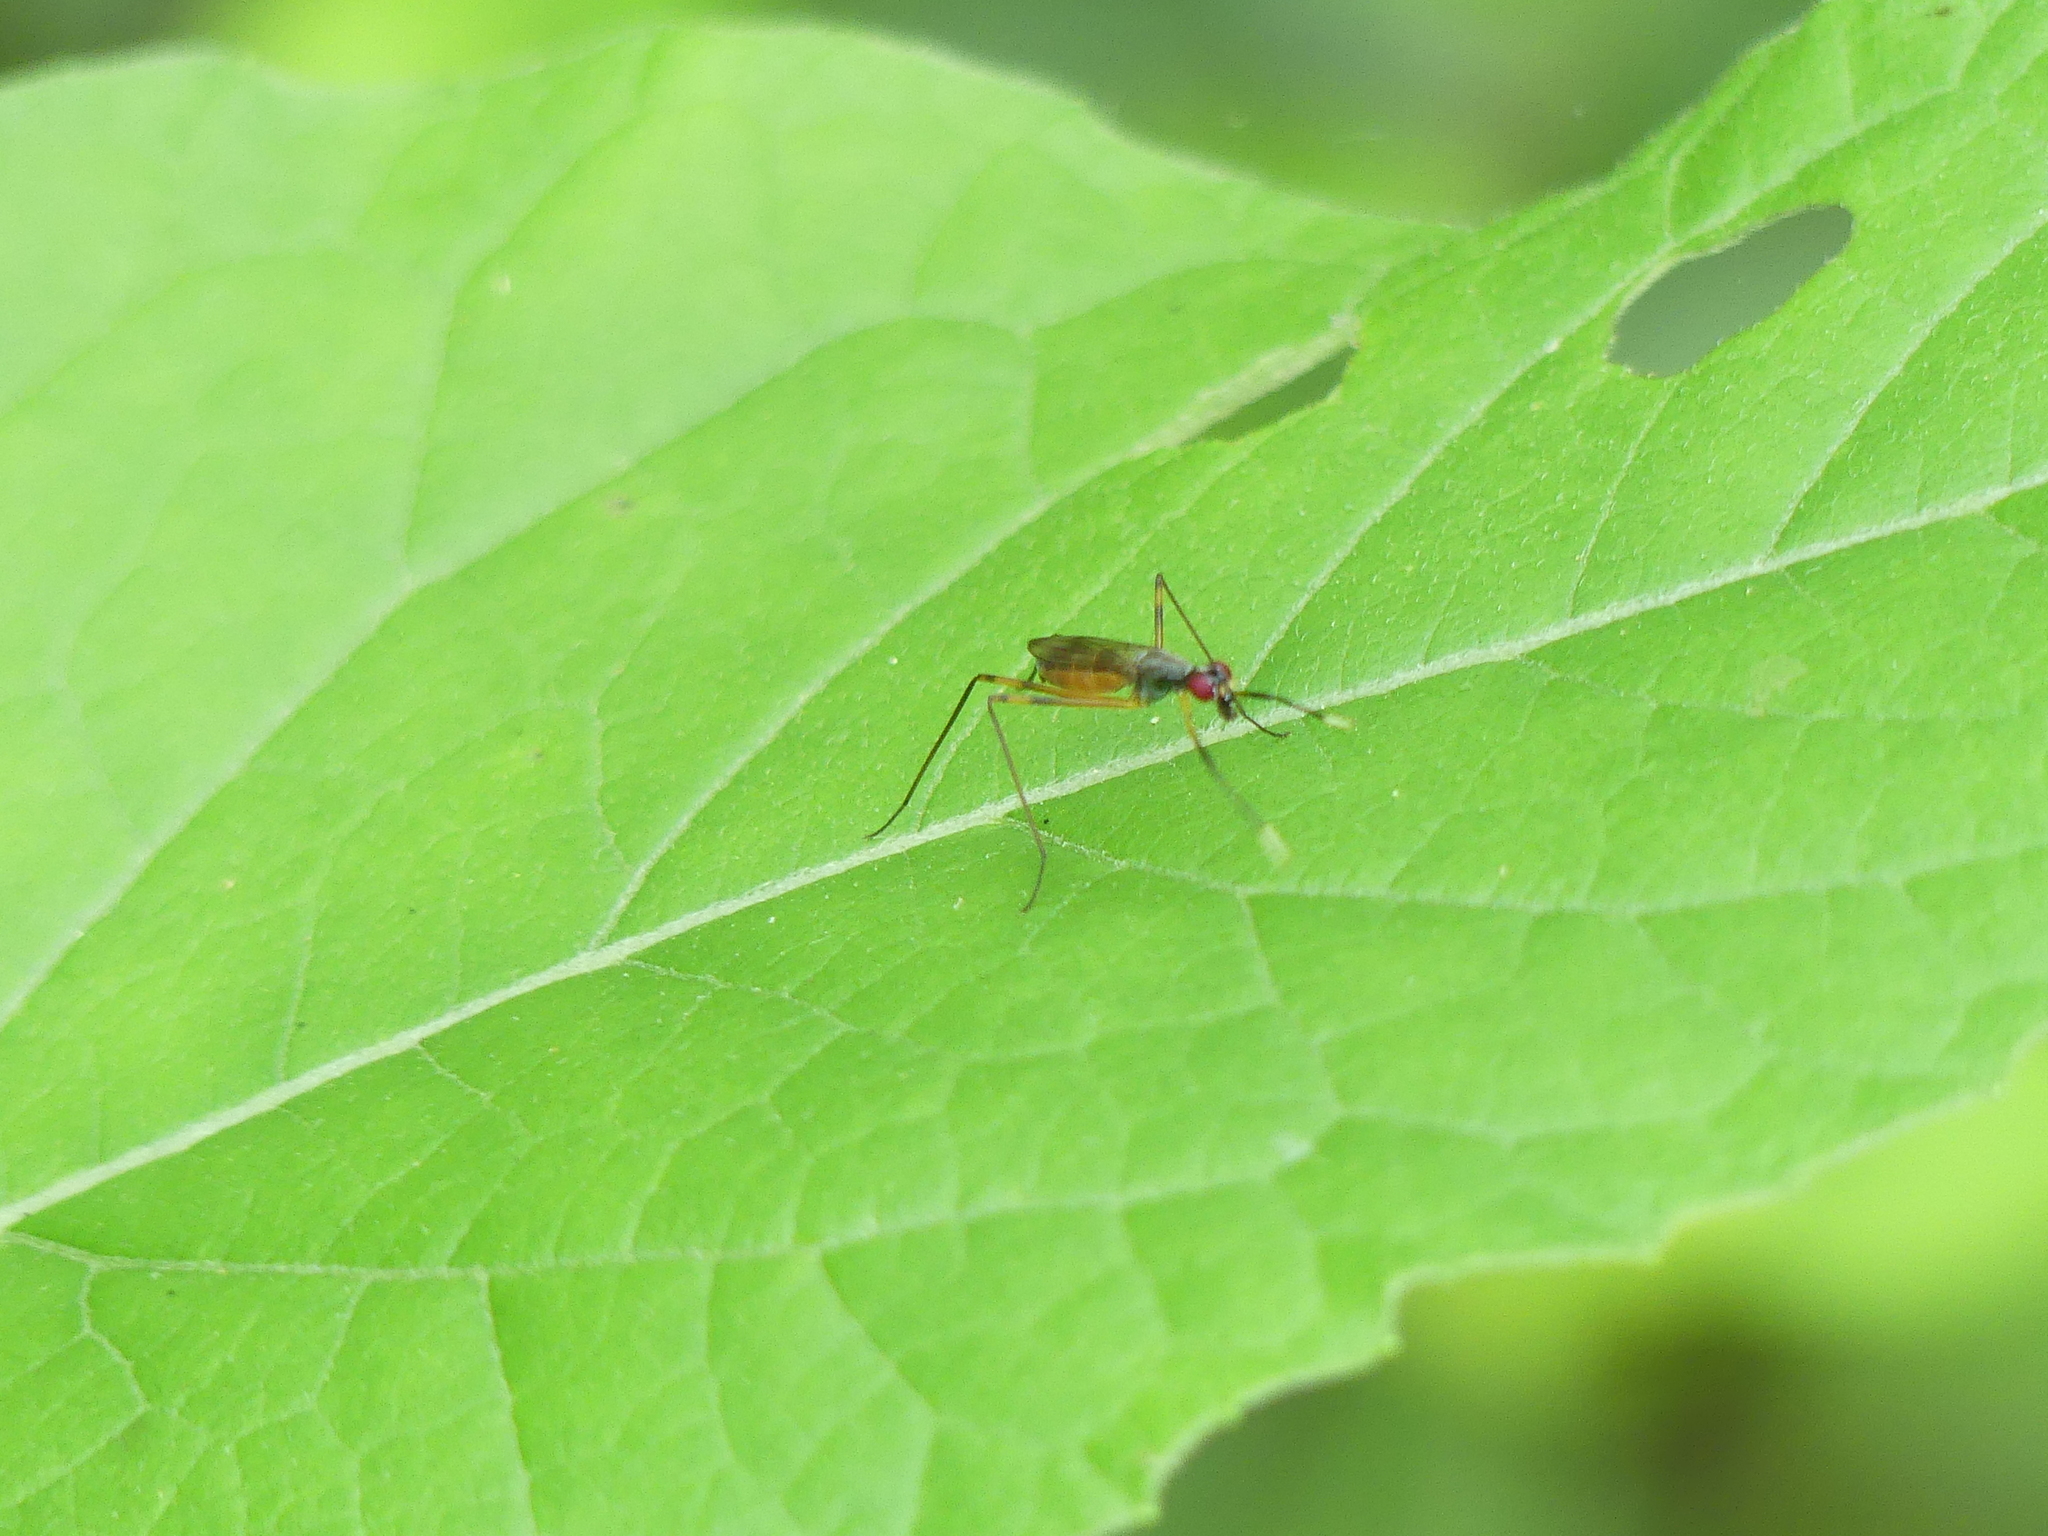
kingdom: Animalia
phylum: Arthropoda
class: Insecta
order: Diptera
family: Micropezidae
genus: Rainieria
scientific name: Rainieria antennaepes
